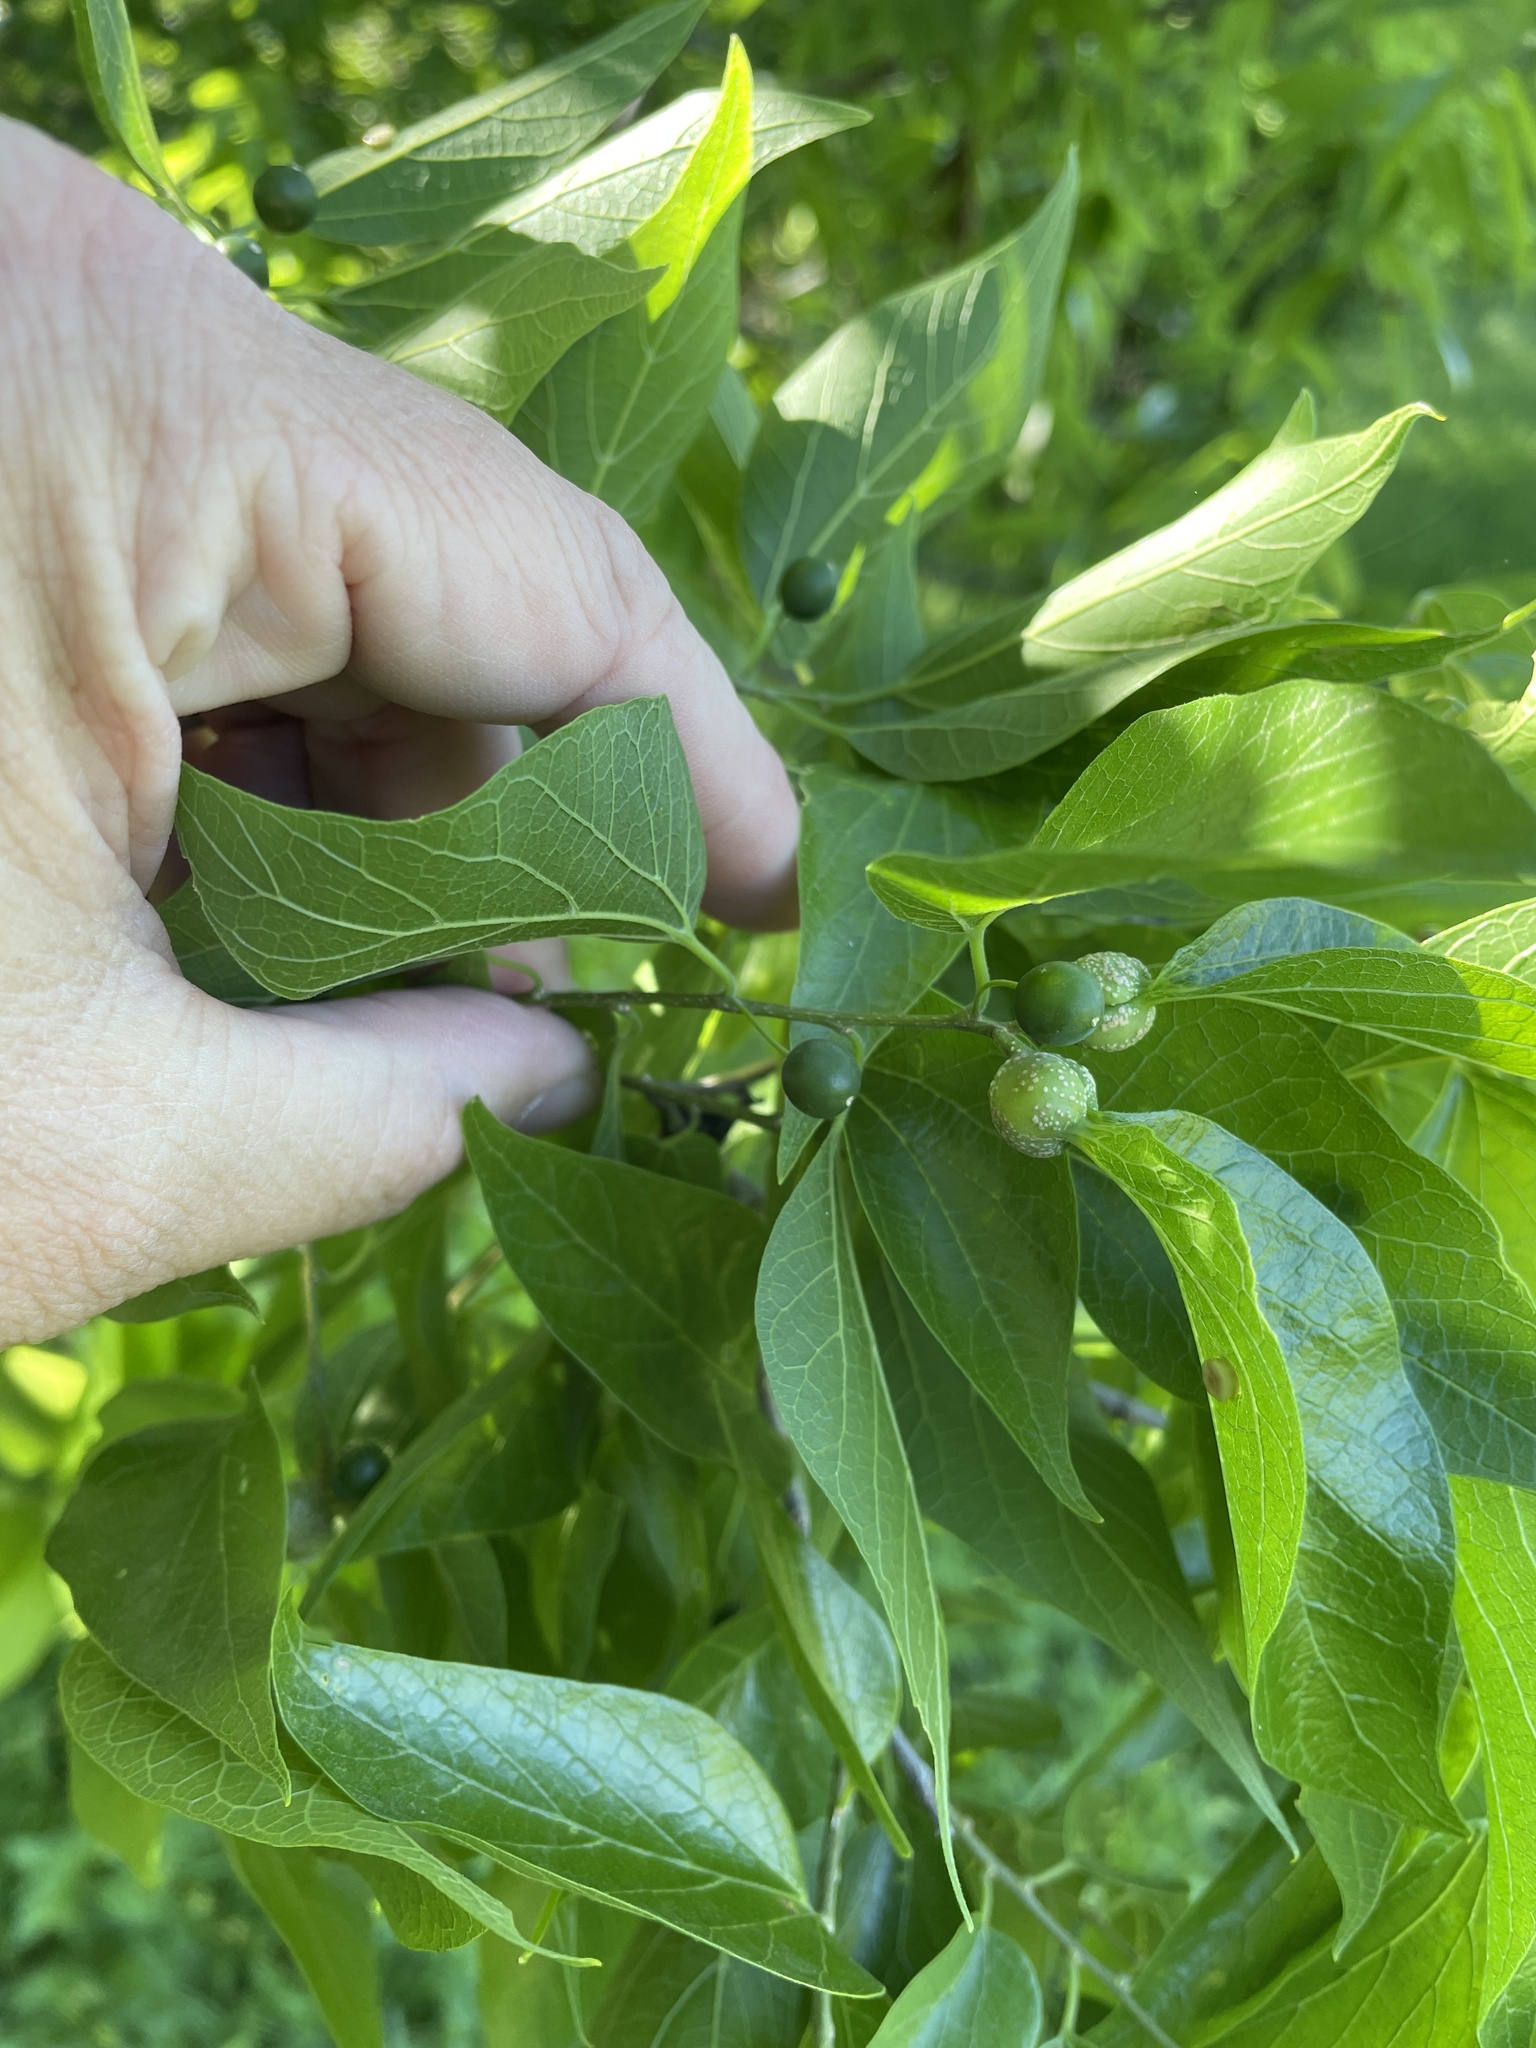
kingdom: Plantae
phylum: Tracheophyta
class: Magnoliopsida
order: Rosales
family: Cannabaceae
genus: Celtis
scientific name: Celtis laevigata
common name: Sugarberry
